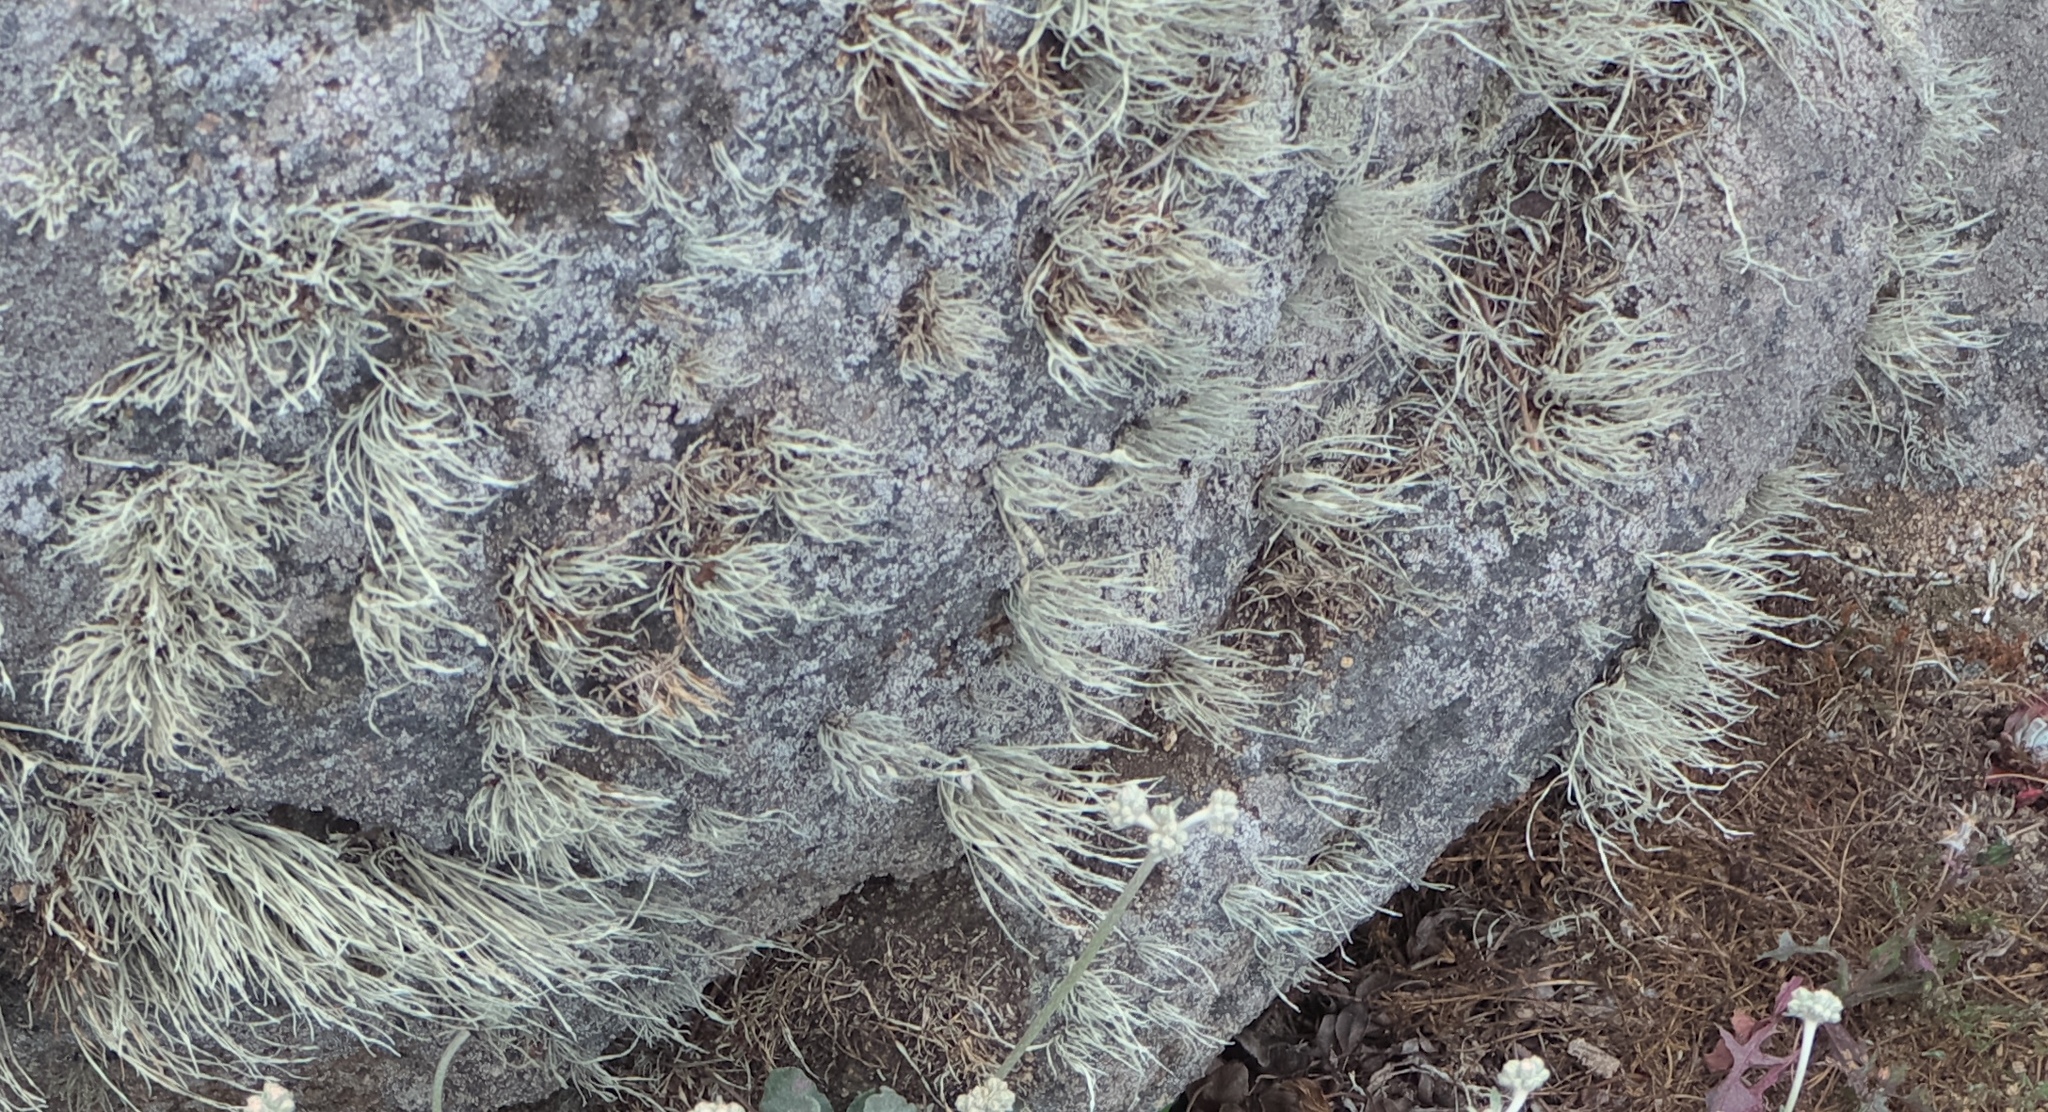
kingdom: Fungi
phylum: Ascomycota
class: Lecanoromycetes
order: Lecanorales
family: Ramalinaceae
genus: Niebla
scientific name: Niebla homalea
